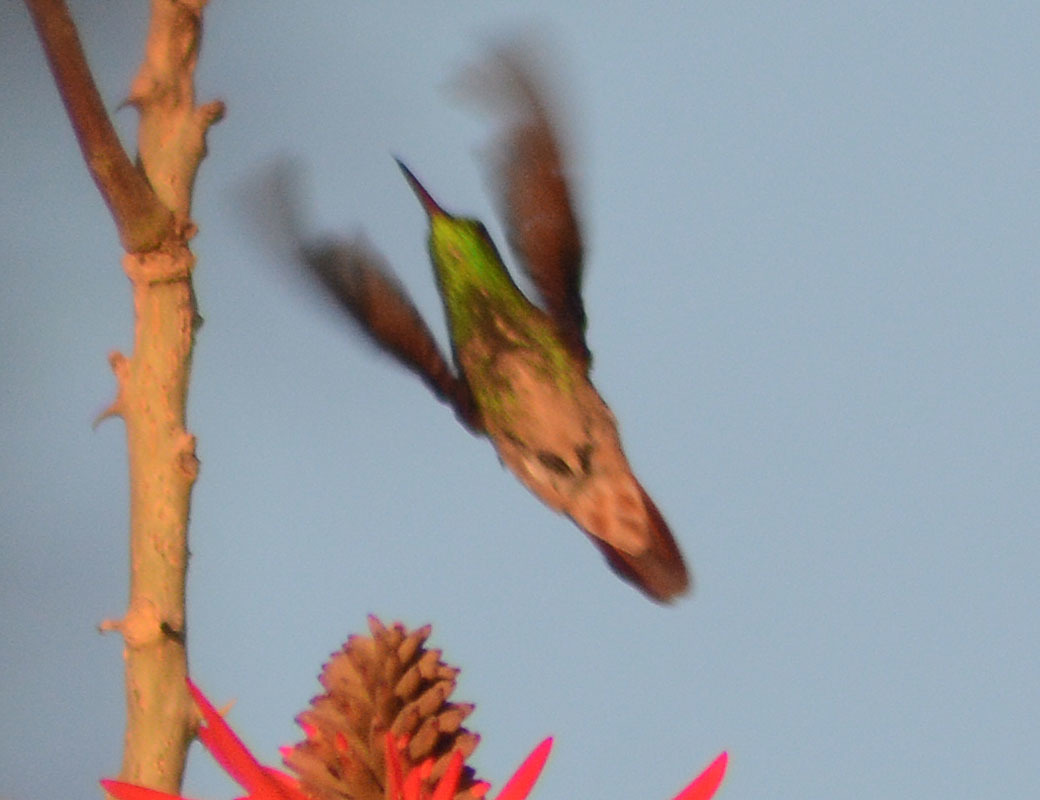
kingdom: Animalia
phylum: Chordata
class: Aves
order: Apodiformes
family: Trochilidae
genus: Saucerottia
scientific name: Saucerottia beryllina
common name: Berylline hummingbird
